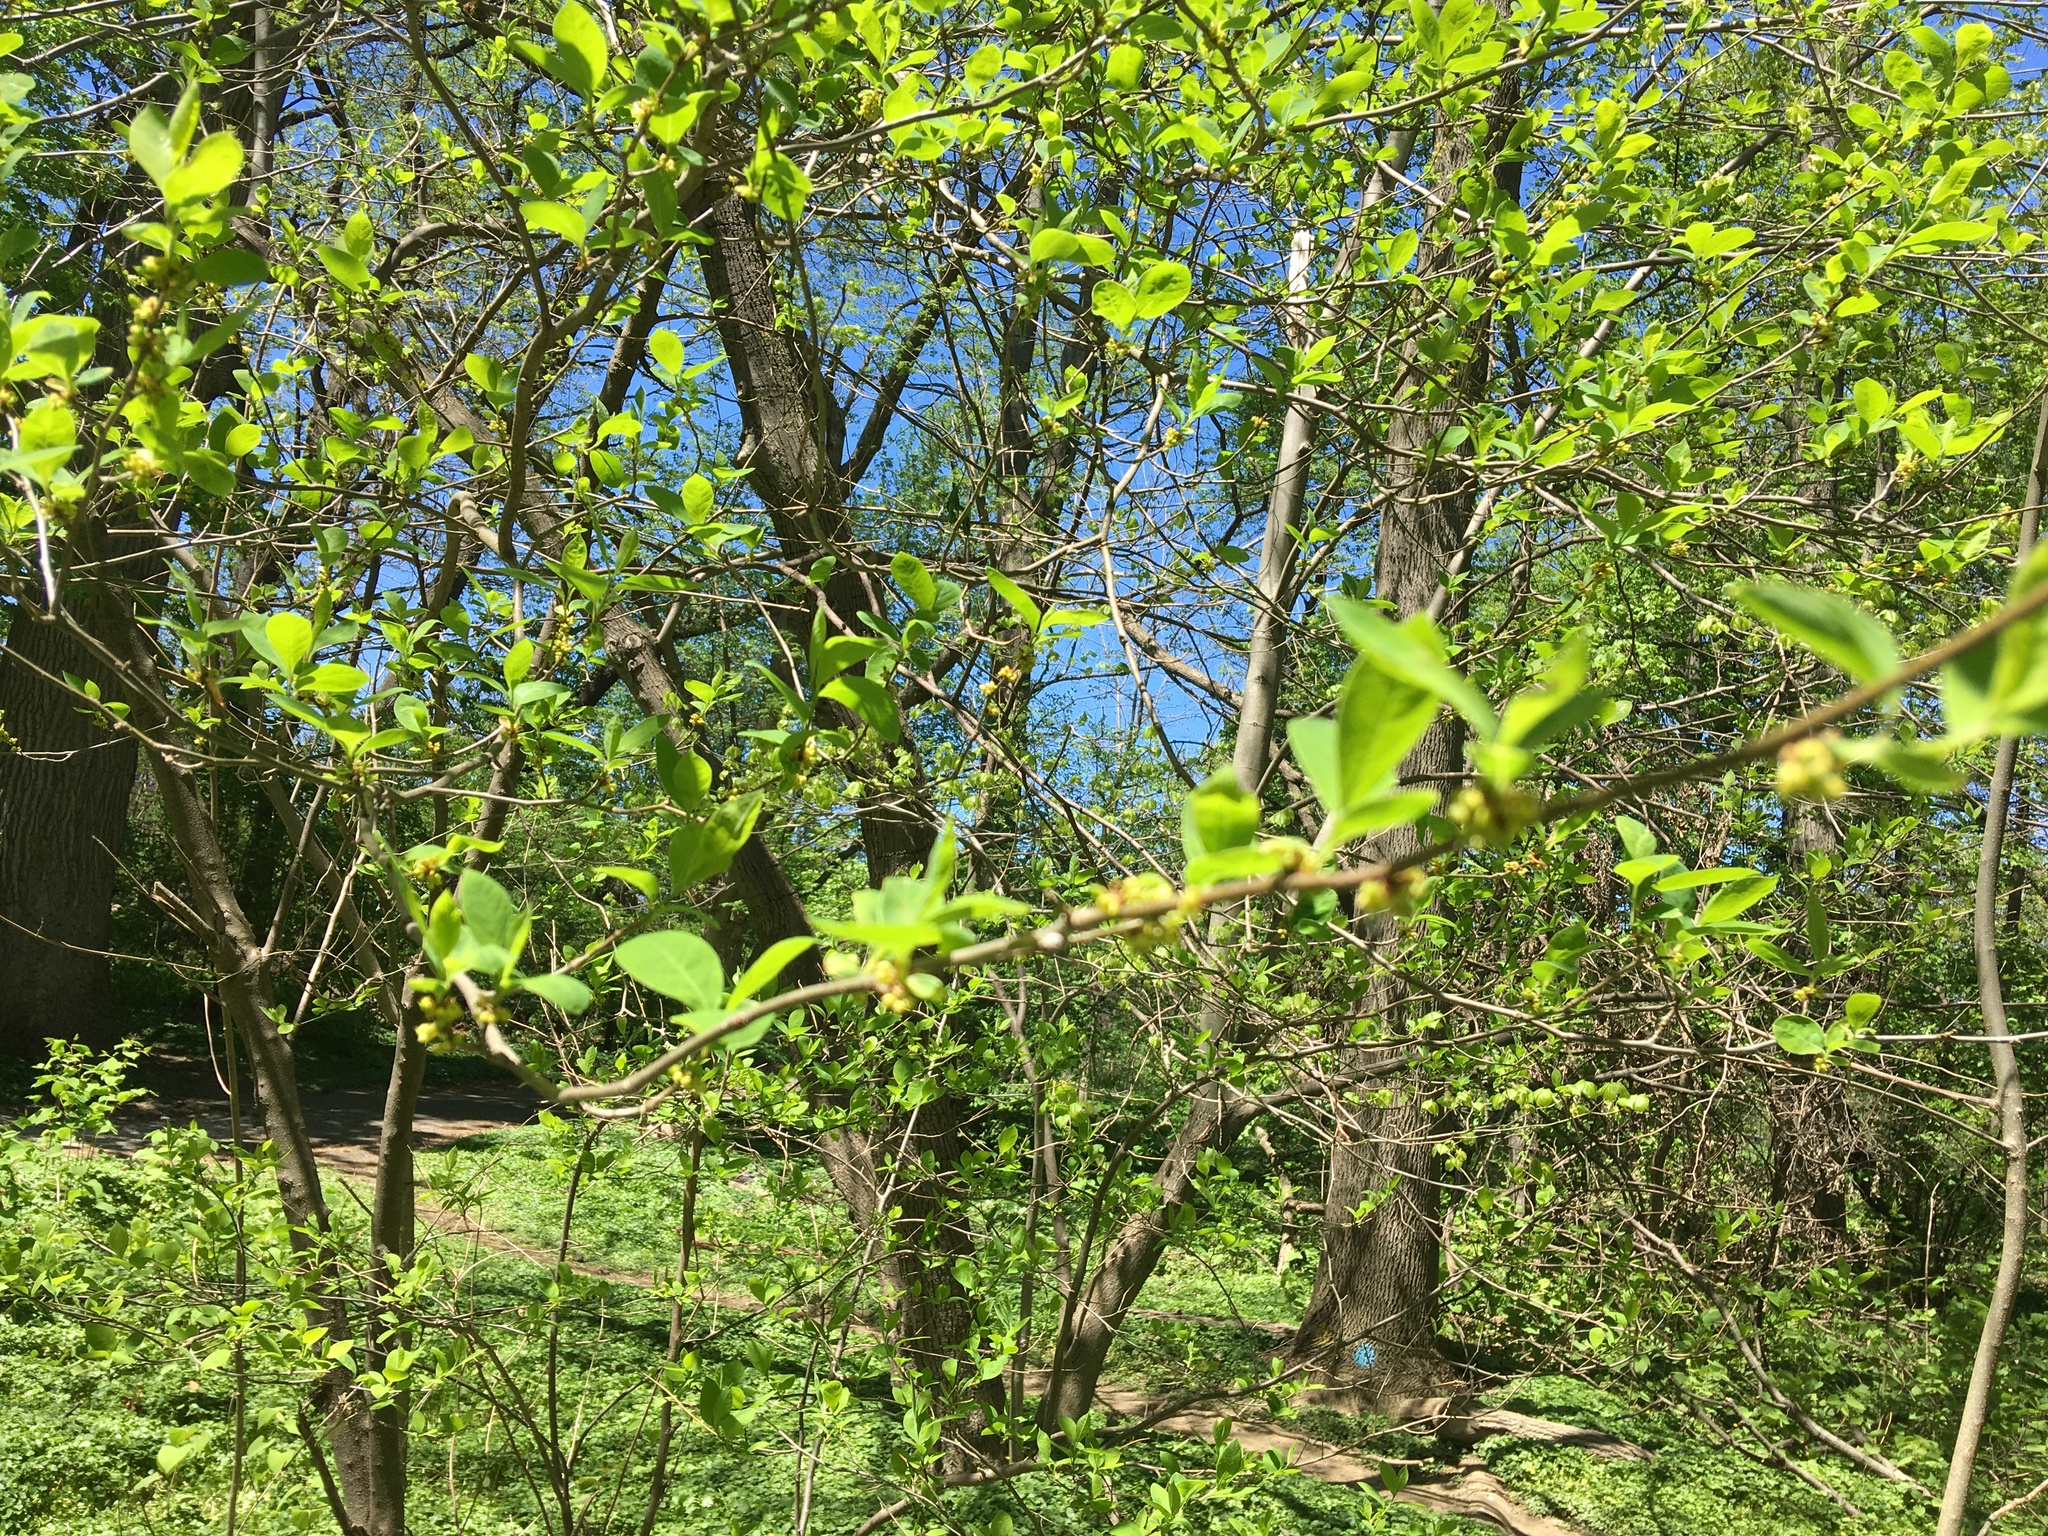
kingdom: Plantae
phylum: Tracheophyta
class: Magnoliopsida
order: Laurales
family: Lauraceae
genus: Lindera
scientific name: Lindera benzoin
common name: Spicebush
